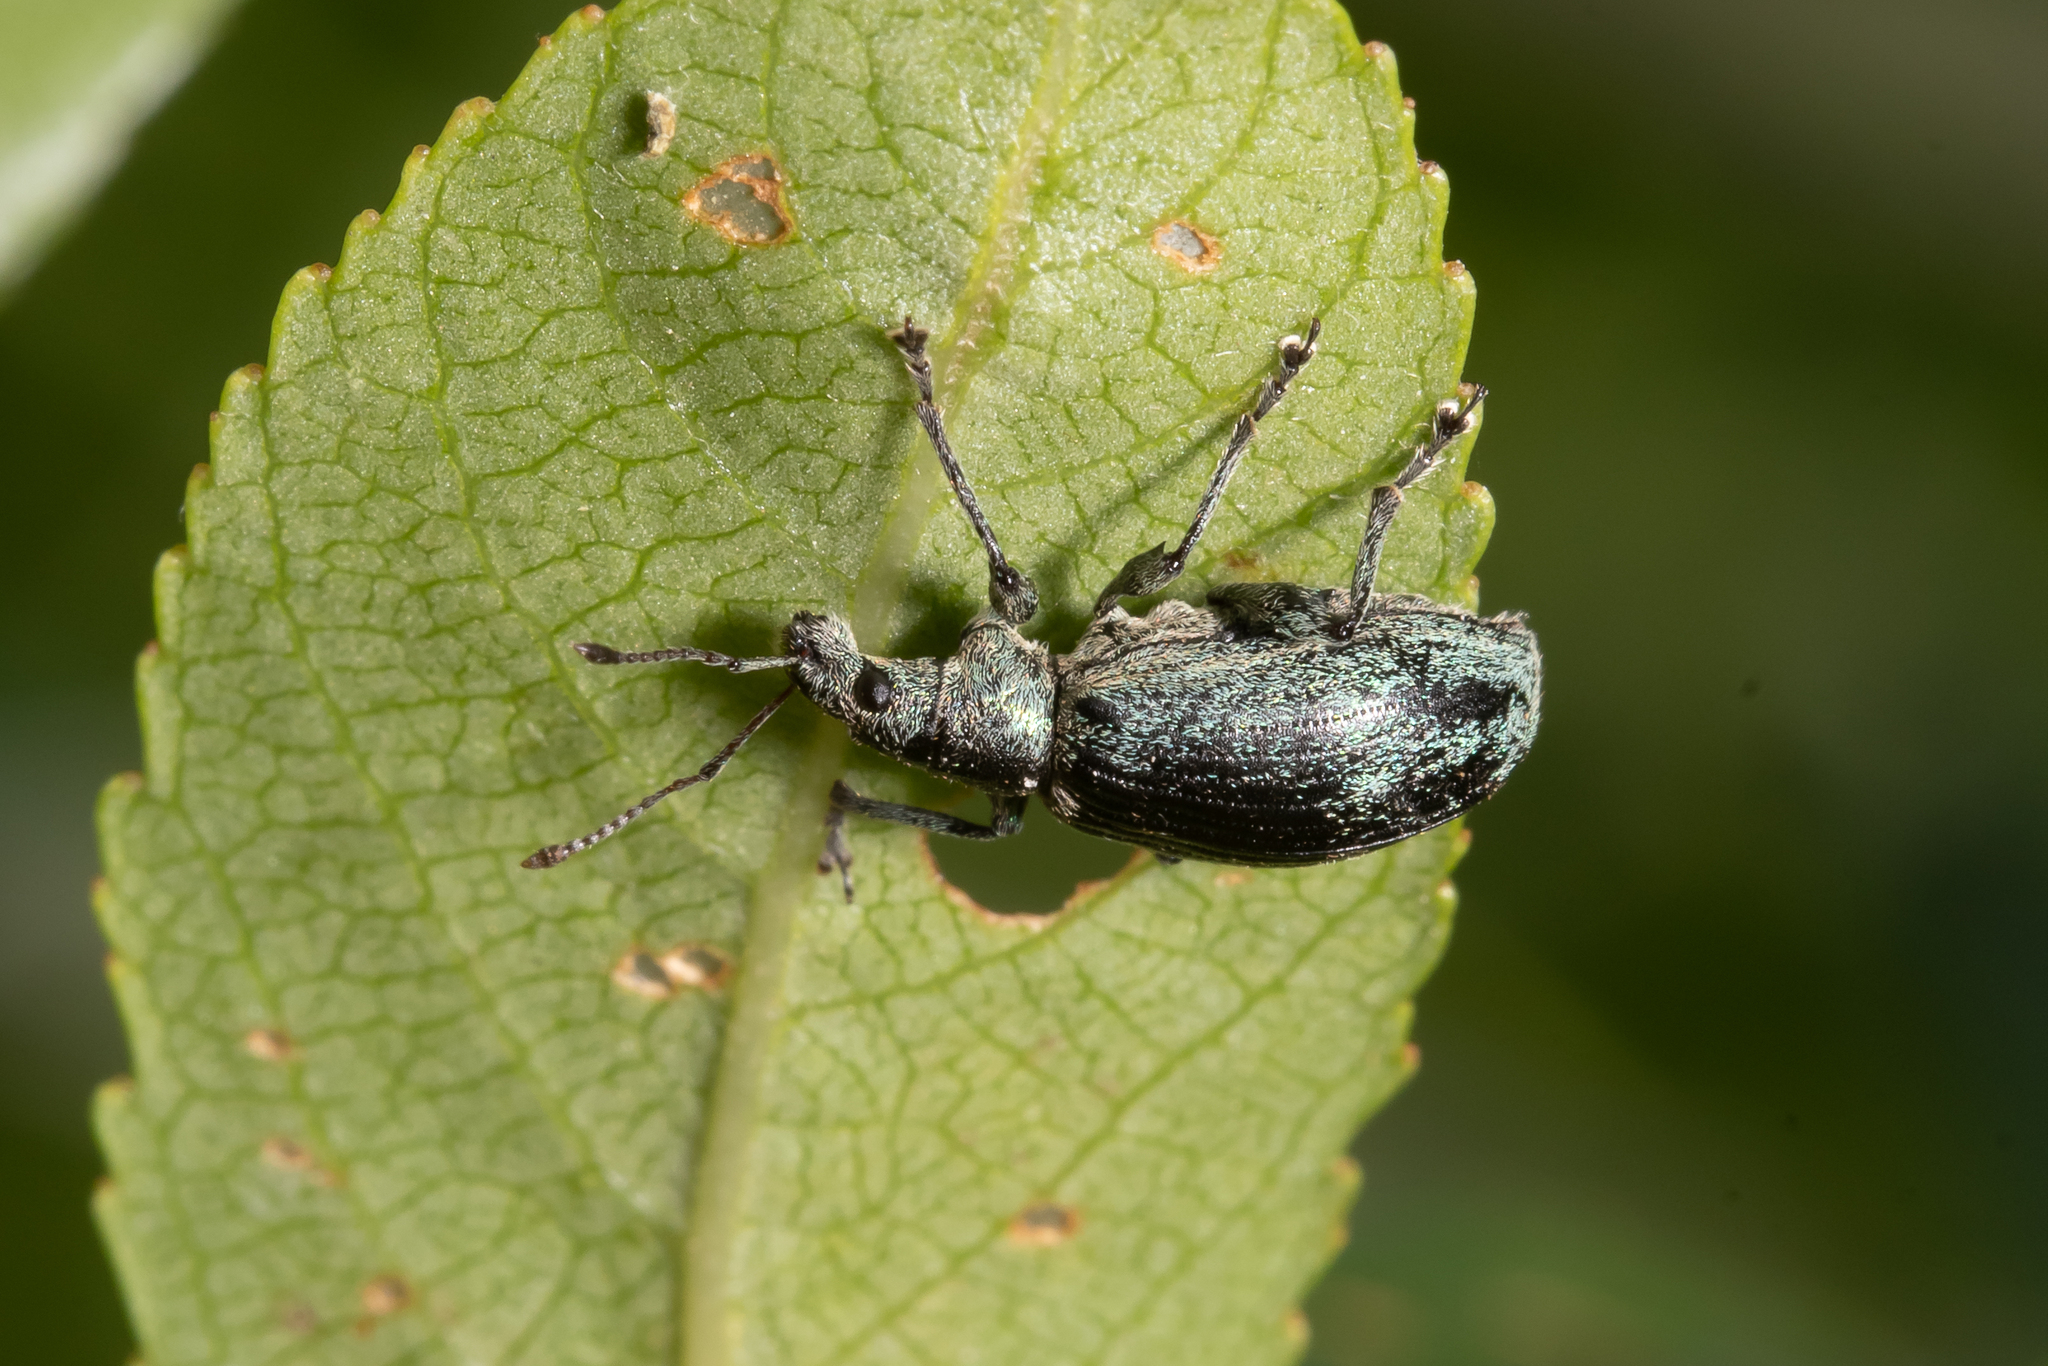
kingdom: Animalia
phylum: Arthropoda
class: Insecta
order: Coleoptera
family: Curculionidae
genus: Phyllobius
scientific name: Phyllobius pomaceus
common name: Green nettle weevil
